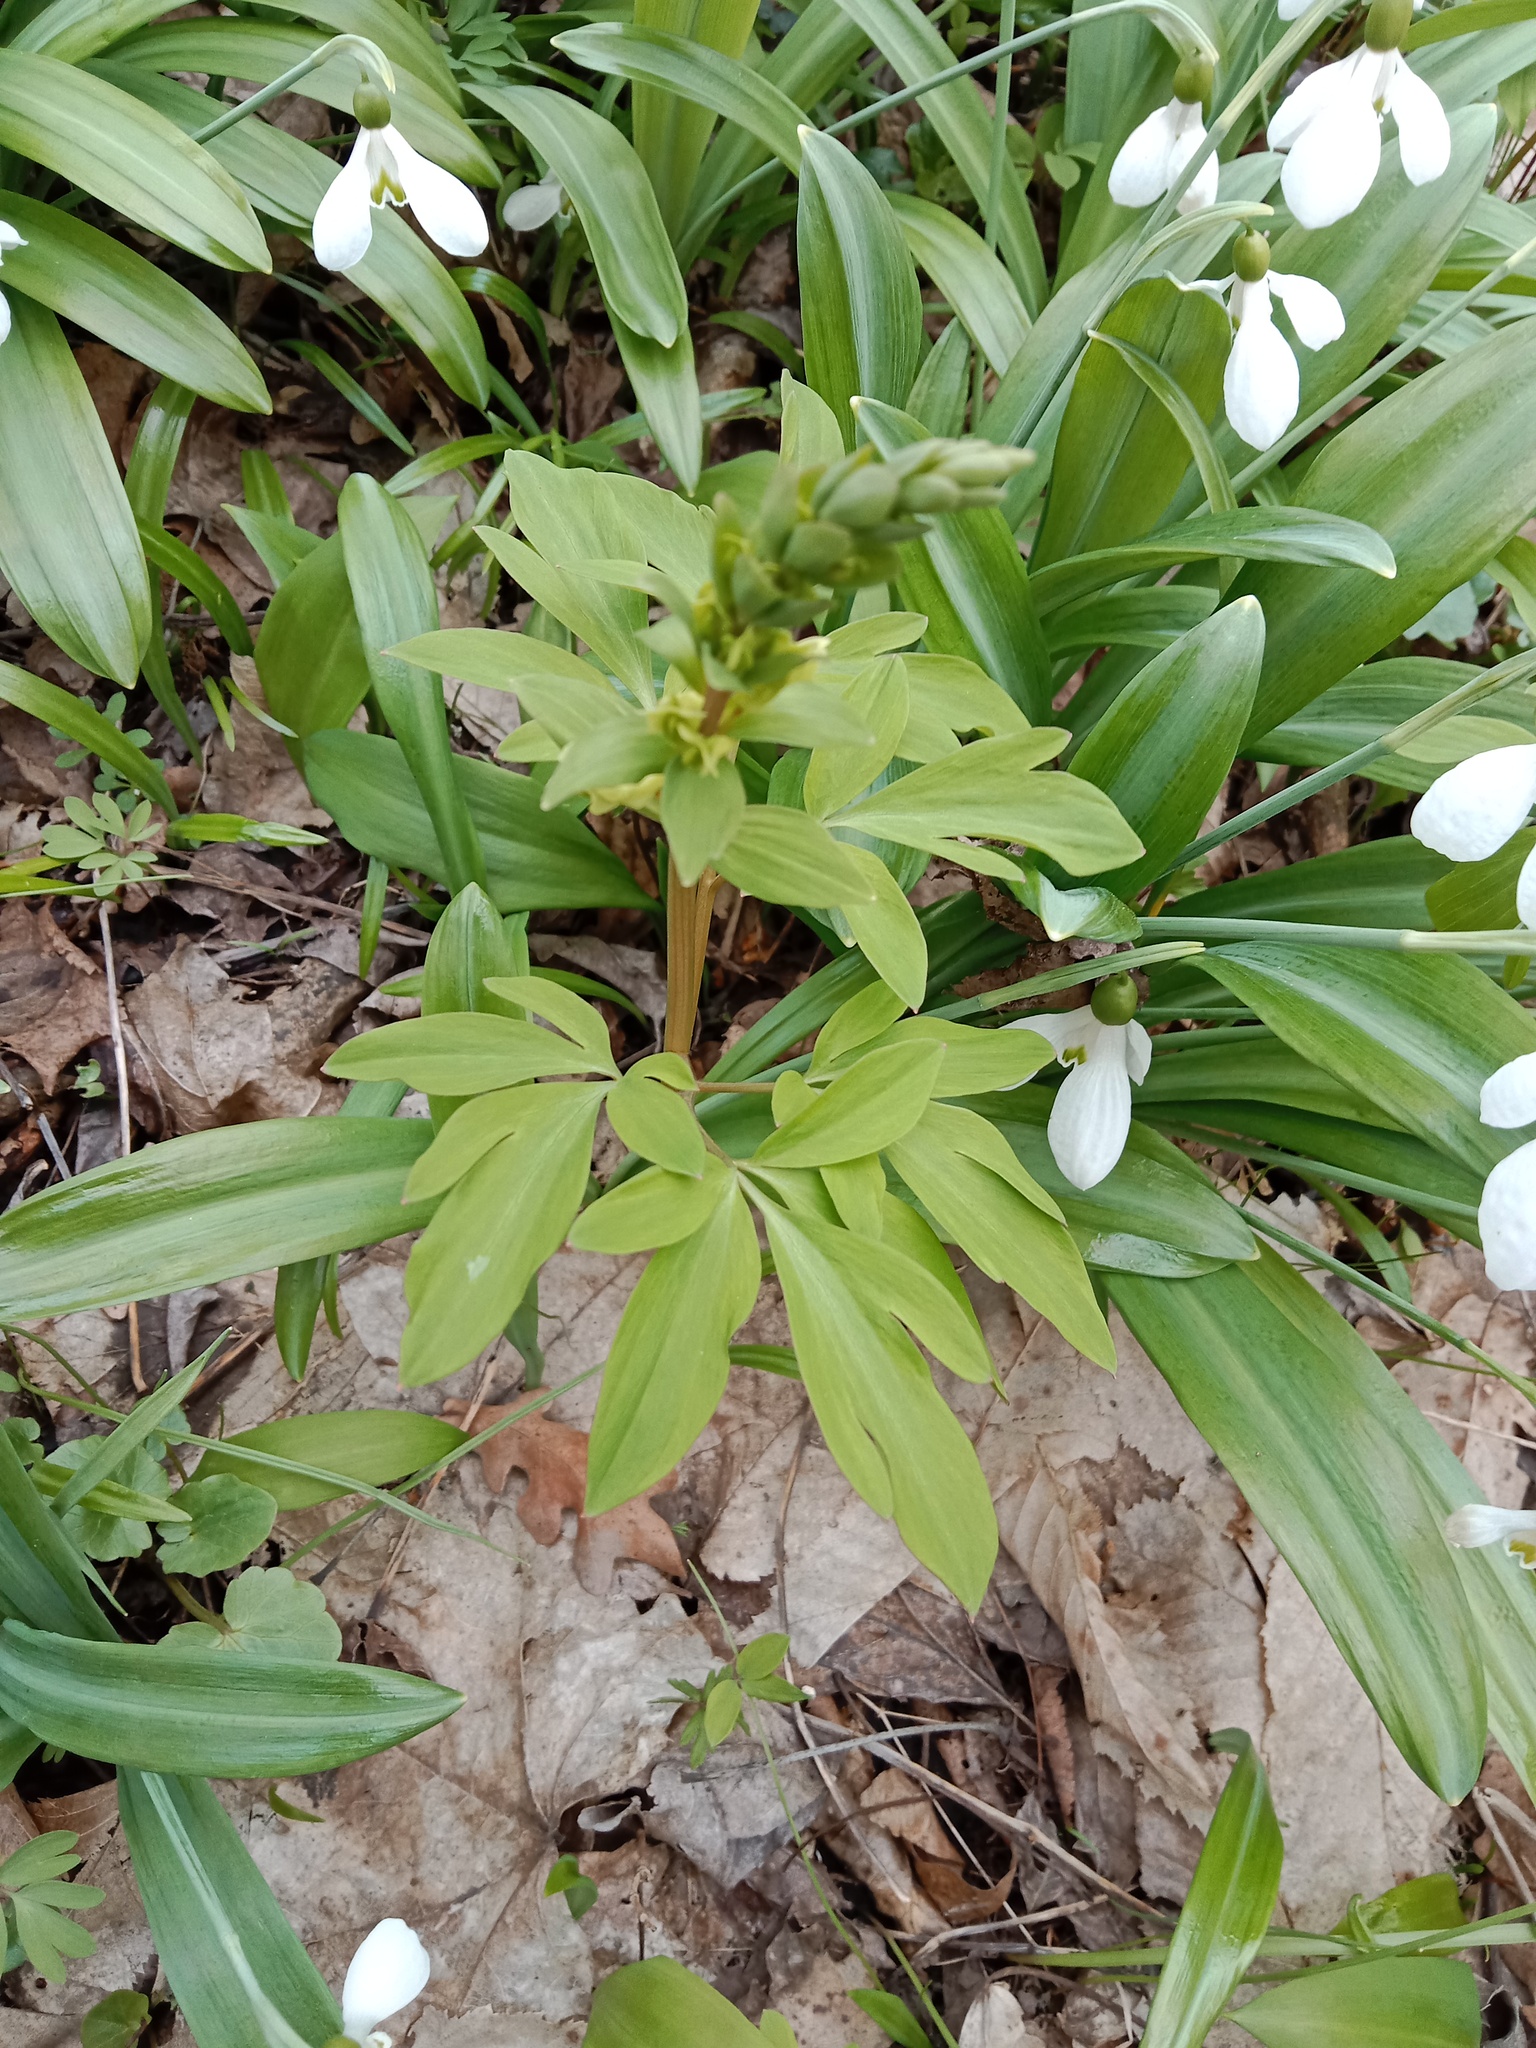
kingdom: Plantae
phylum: Tracheophyta
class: Magnoliopsida
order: Ranunculales
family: Papaveraceae
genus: Corydalis
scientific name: Corydalis cava
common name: Hollowroot
